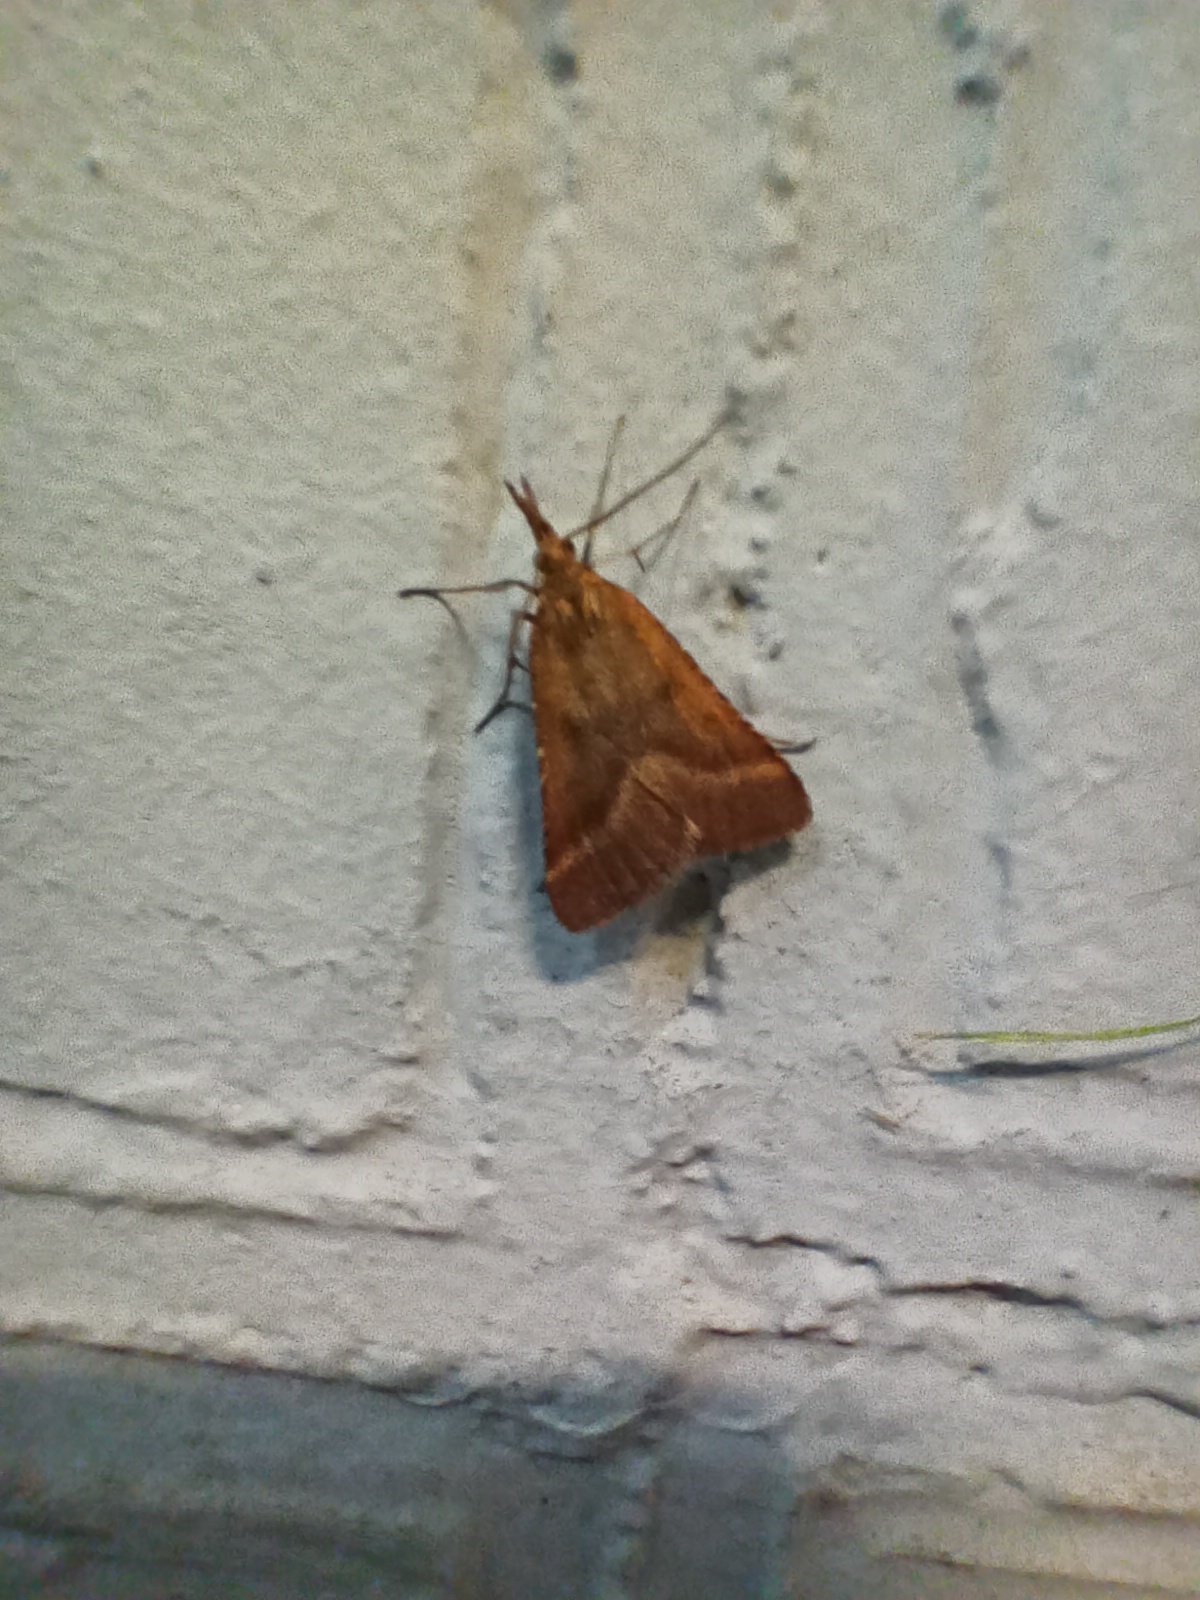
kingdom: Animalia
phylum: Arthropoda
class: Insecta
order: Lepidoptera
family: Pyralidae
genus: Synaphe
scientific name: Synaphe punctalis
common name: Long-legged tabby
